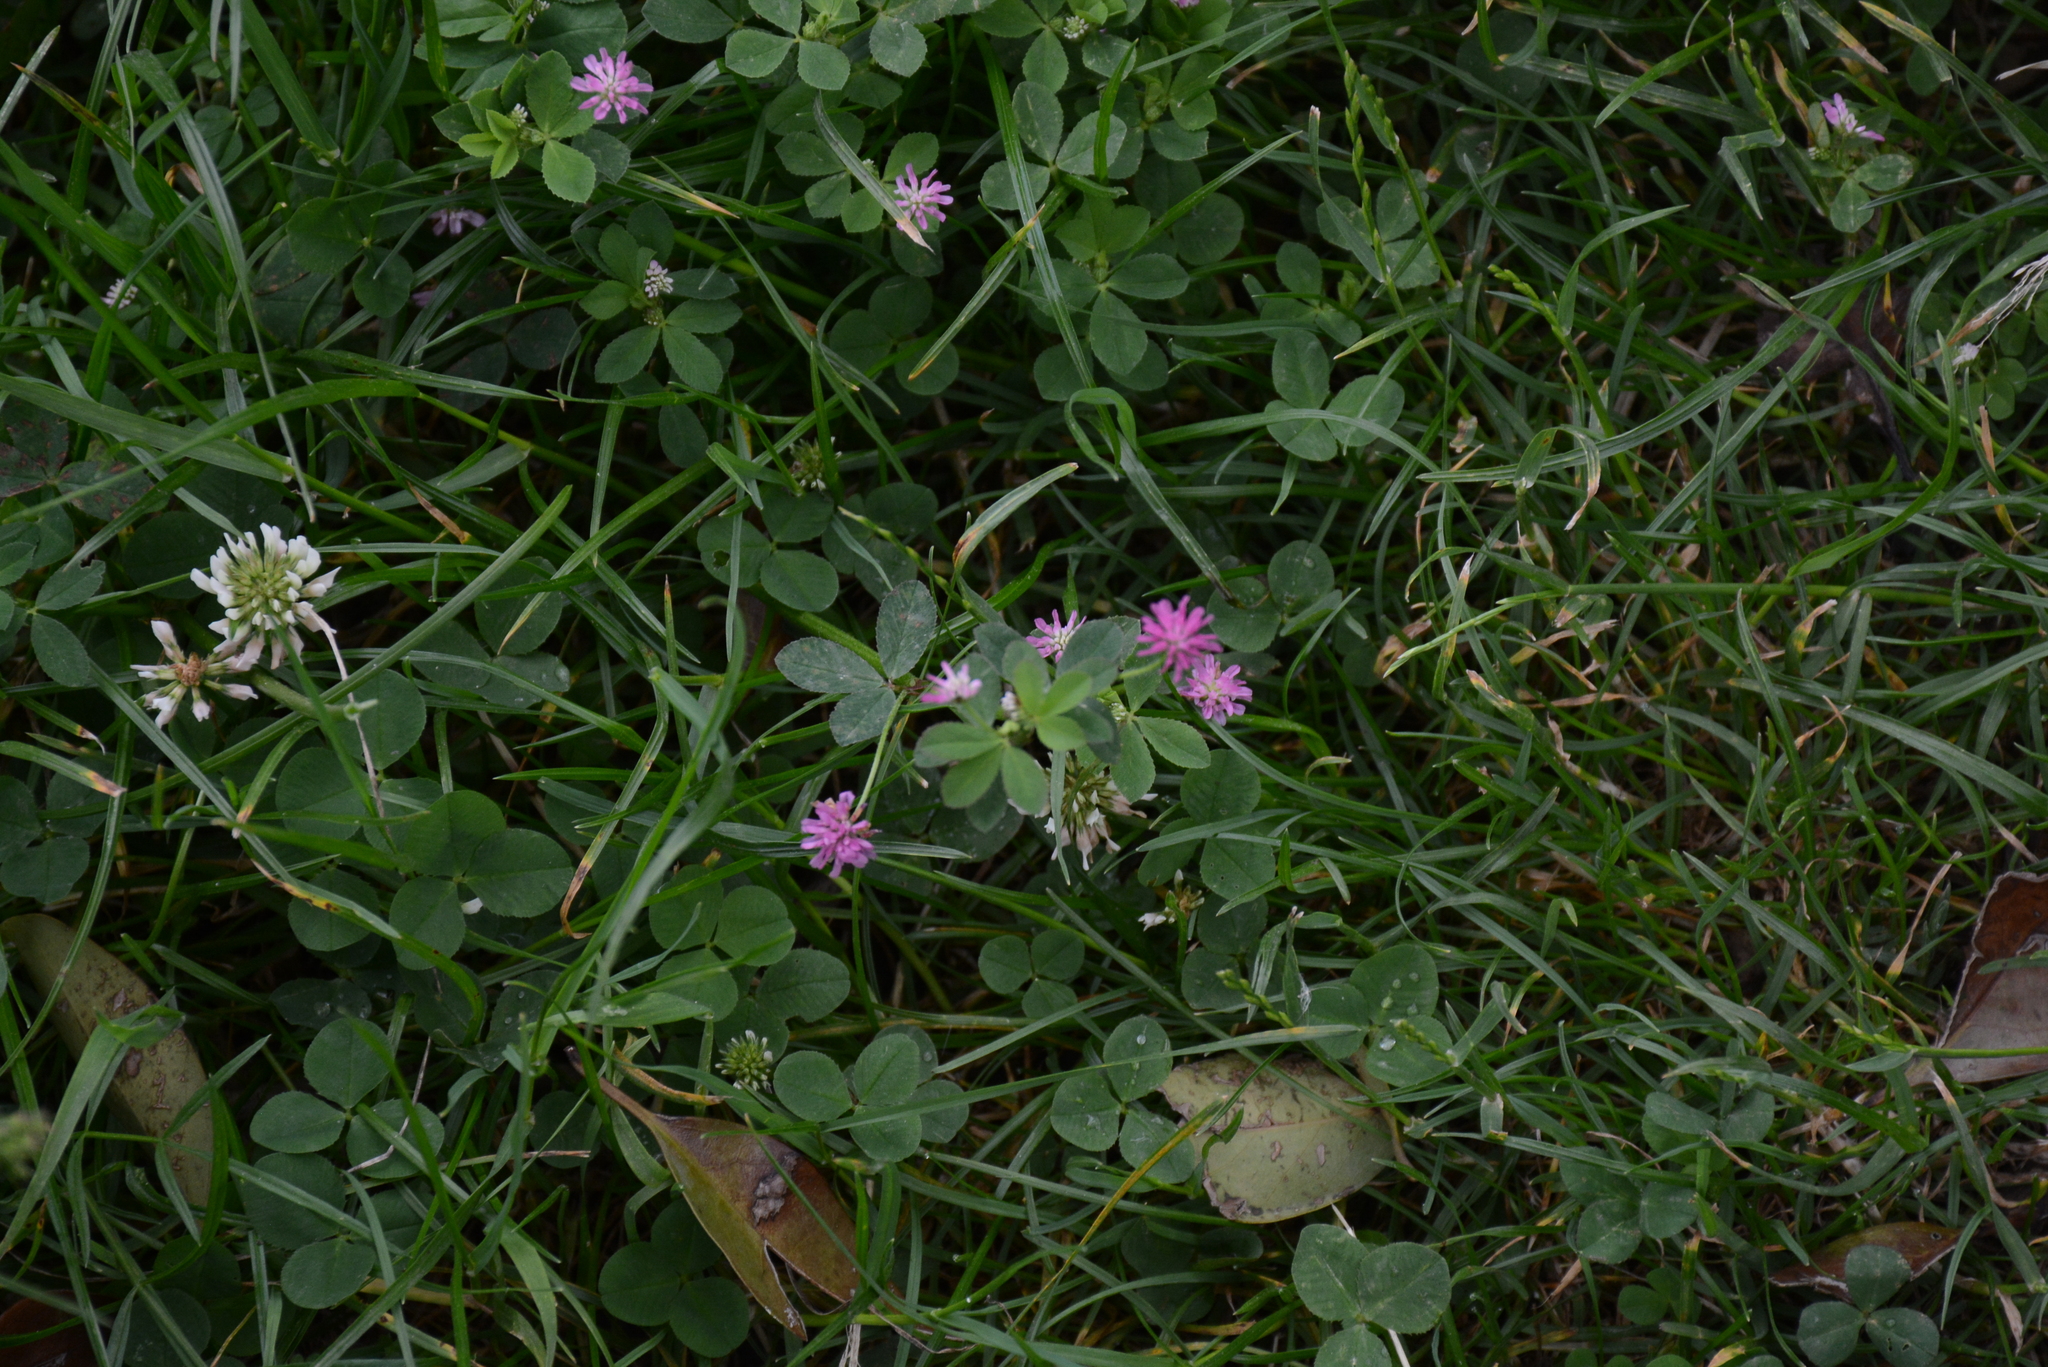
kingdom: Plantae
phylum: Tracheophyta
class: Magnoliopsida
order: Fabales
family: Fabaceae
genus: Trifolium
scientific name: Trifolium resupinatum
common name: Reversed clover
